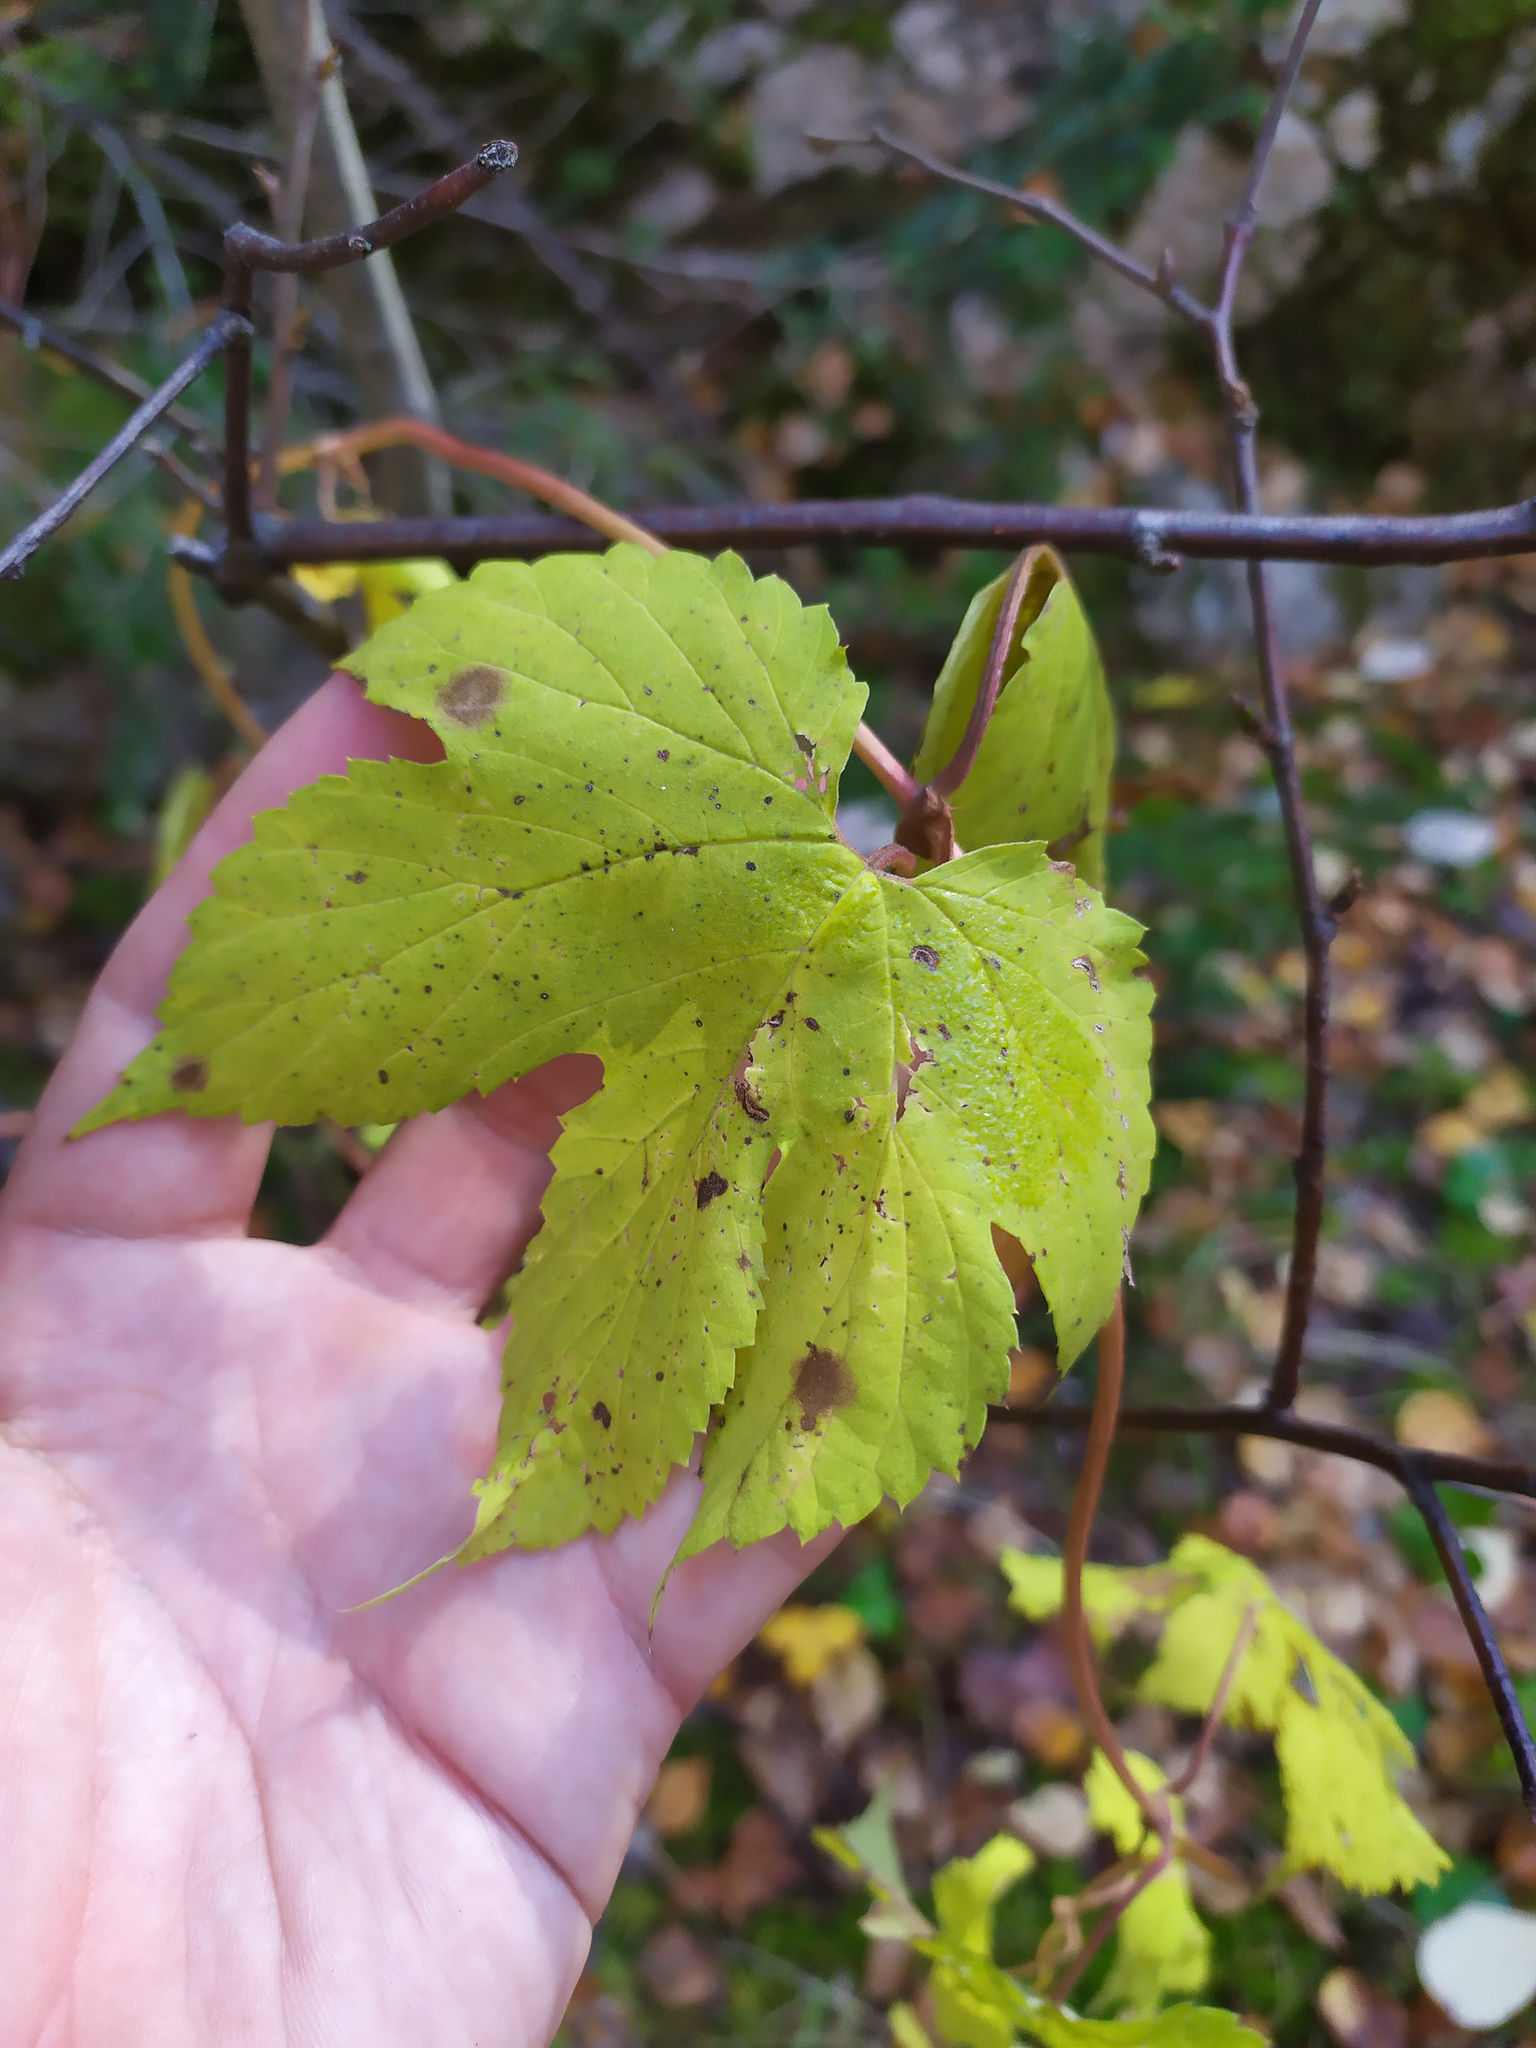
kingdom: Plantae
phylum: Tracheophyta
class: Magnoliopsida
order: Rosales
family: Cannabaceae
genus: Humulus
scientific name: Humulus lupulus
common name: Hop
